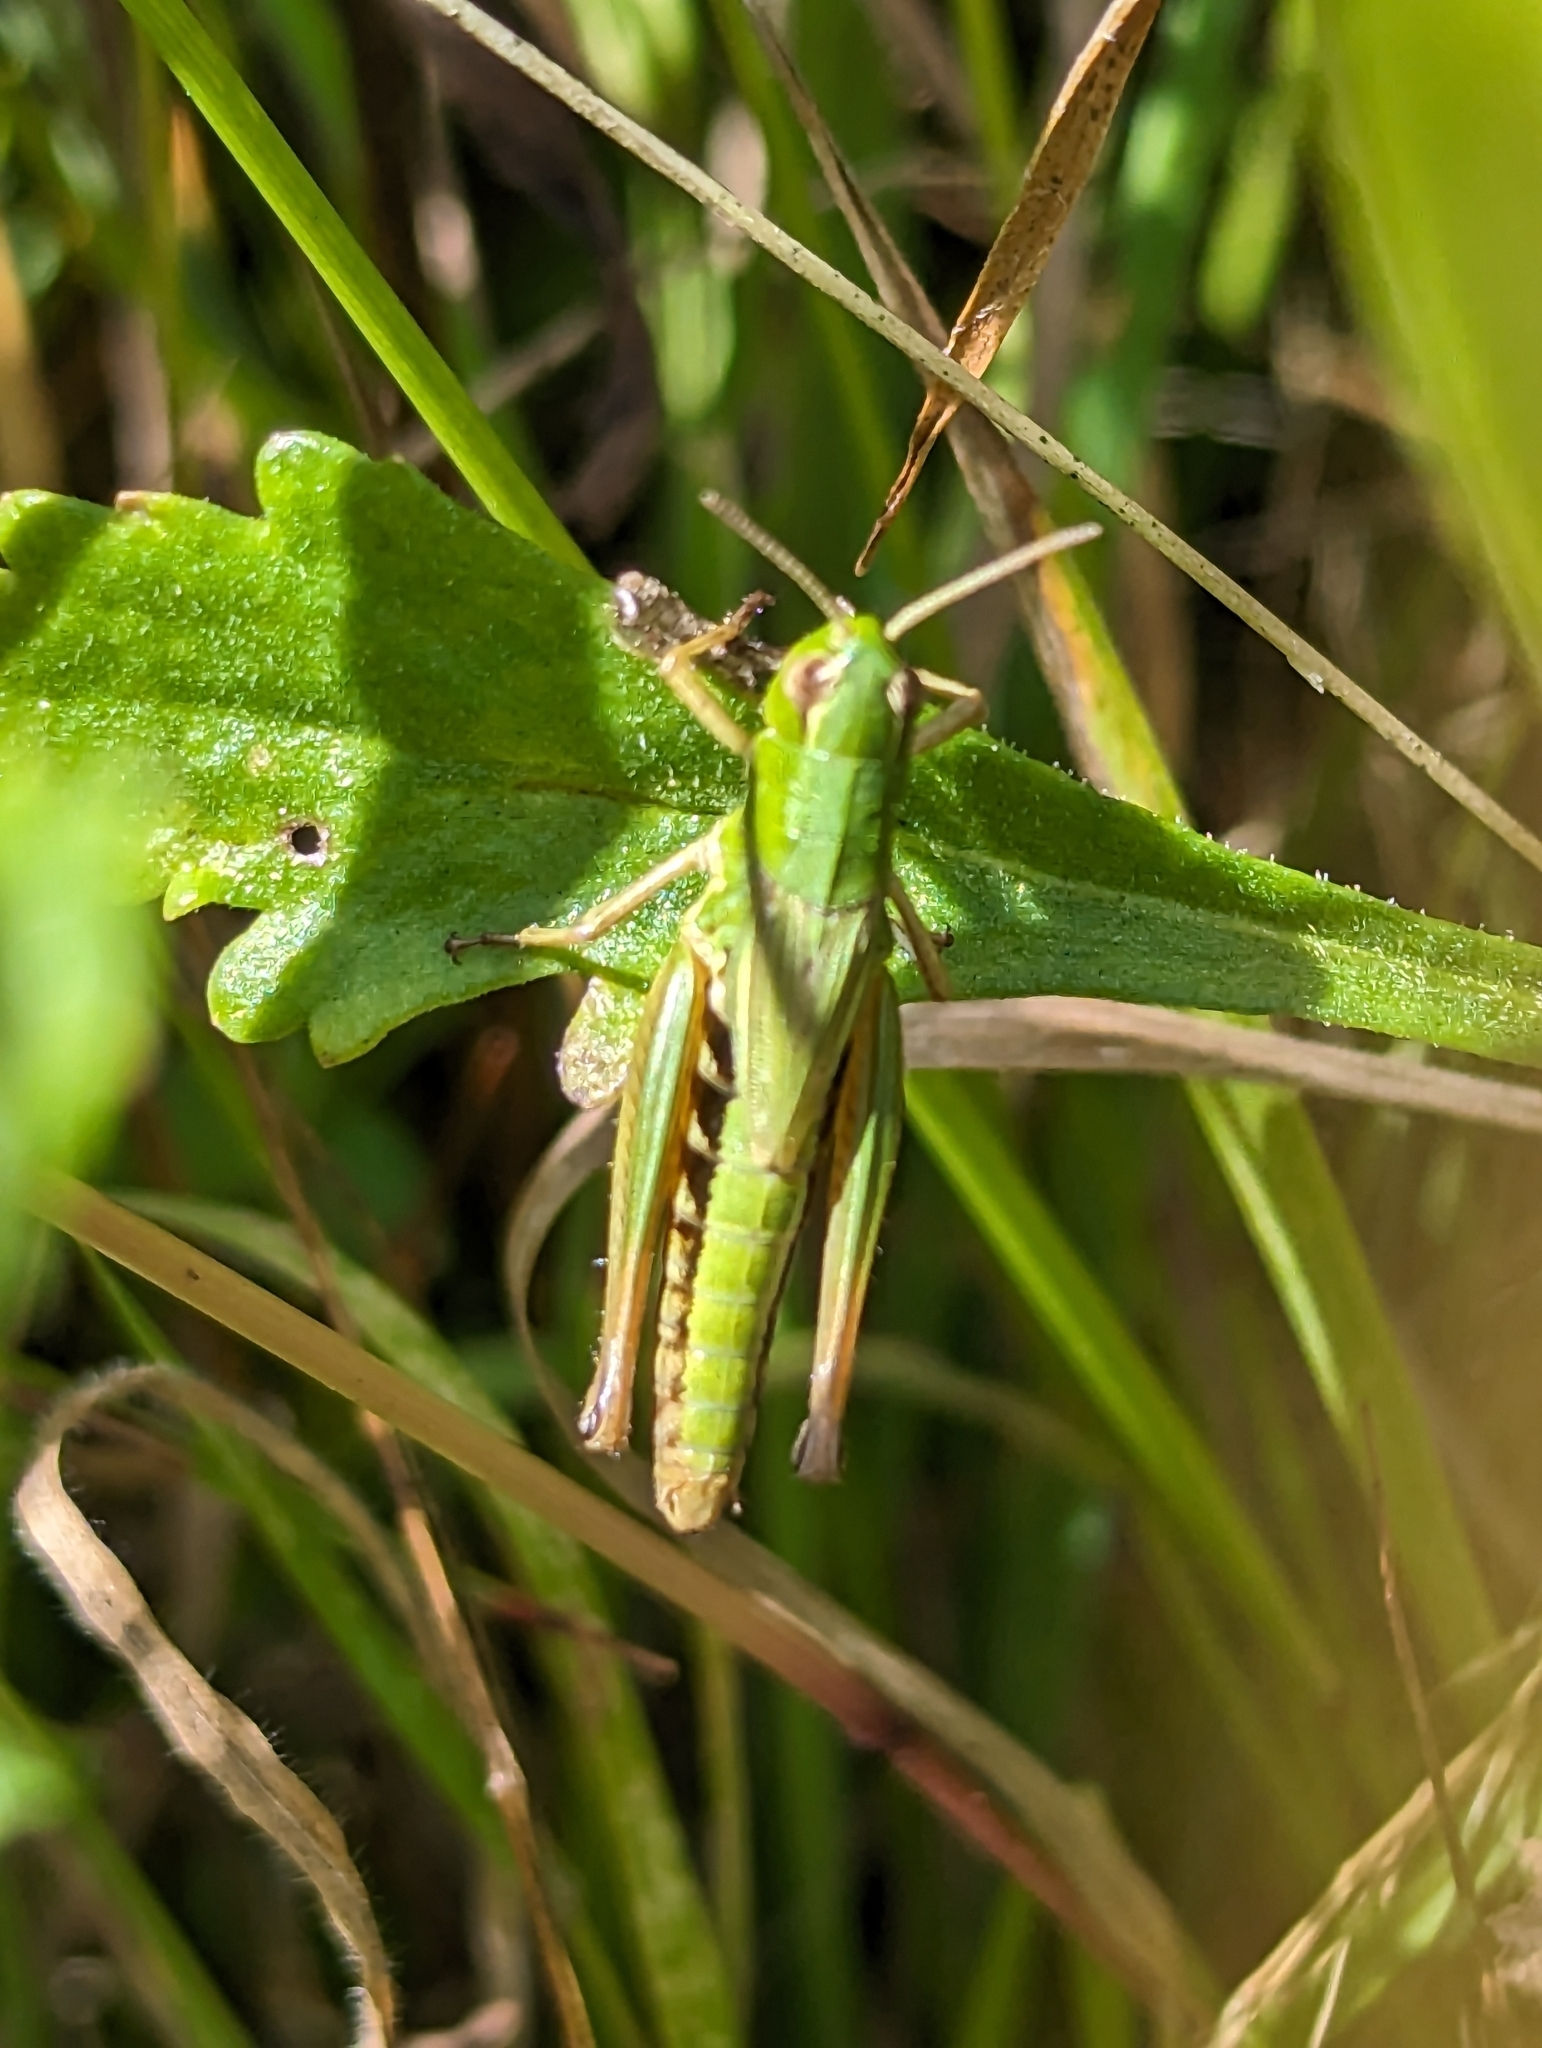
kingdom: Animalia
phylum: Arthropoda
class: Insecta
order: Orthoptera
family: Acrididae
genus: Pseudochorthippus
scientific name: Pseudochorthippus parallelus
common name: Meadow grasshopper
